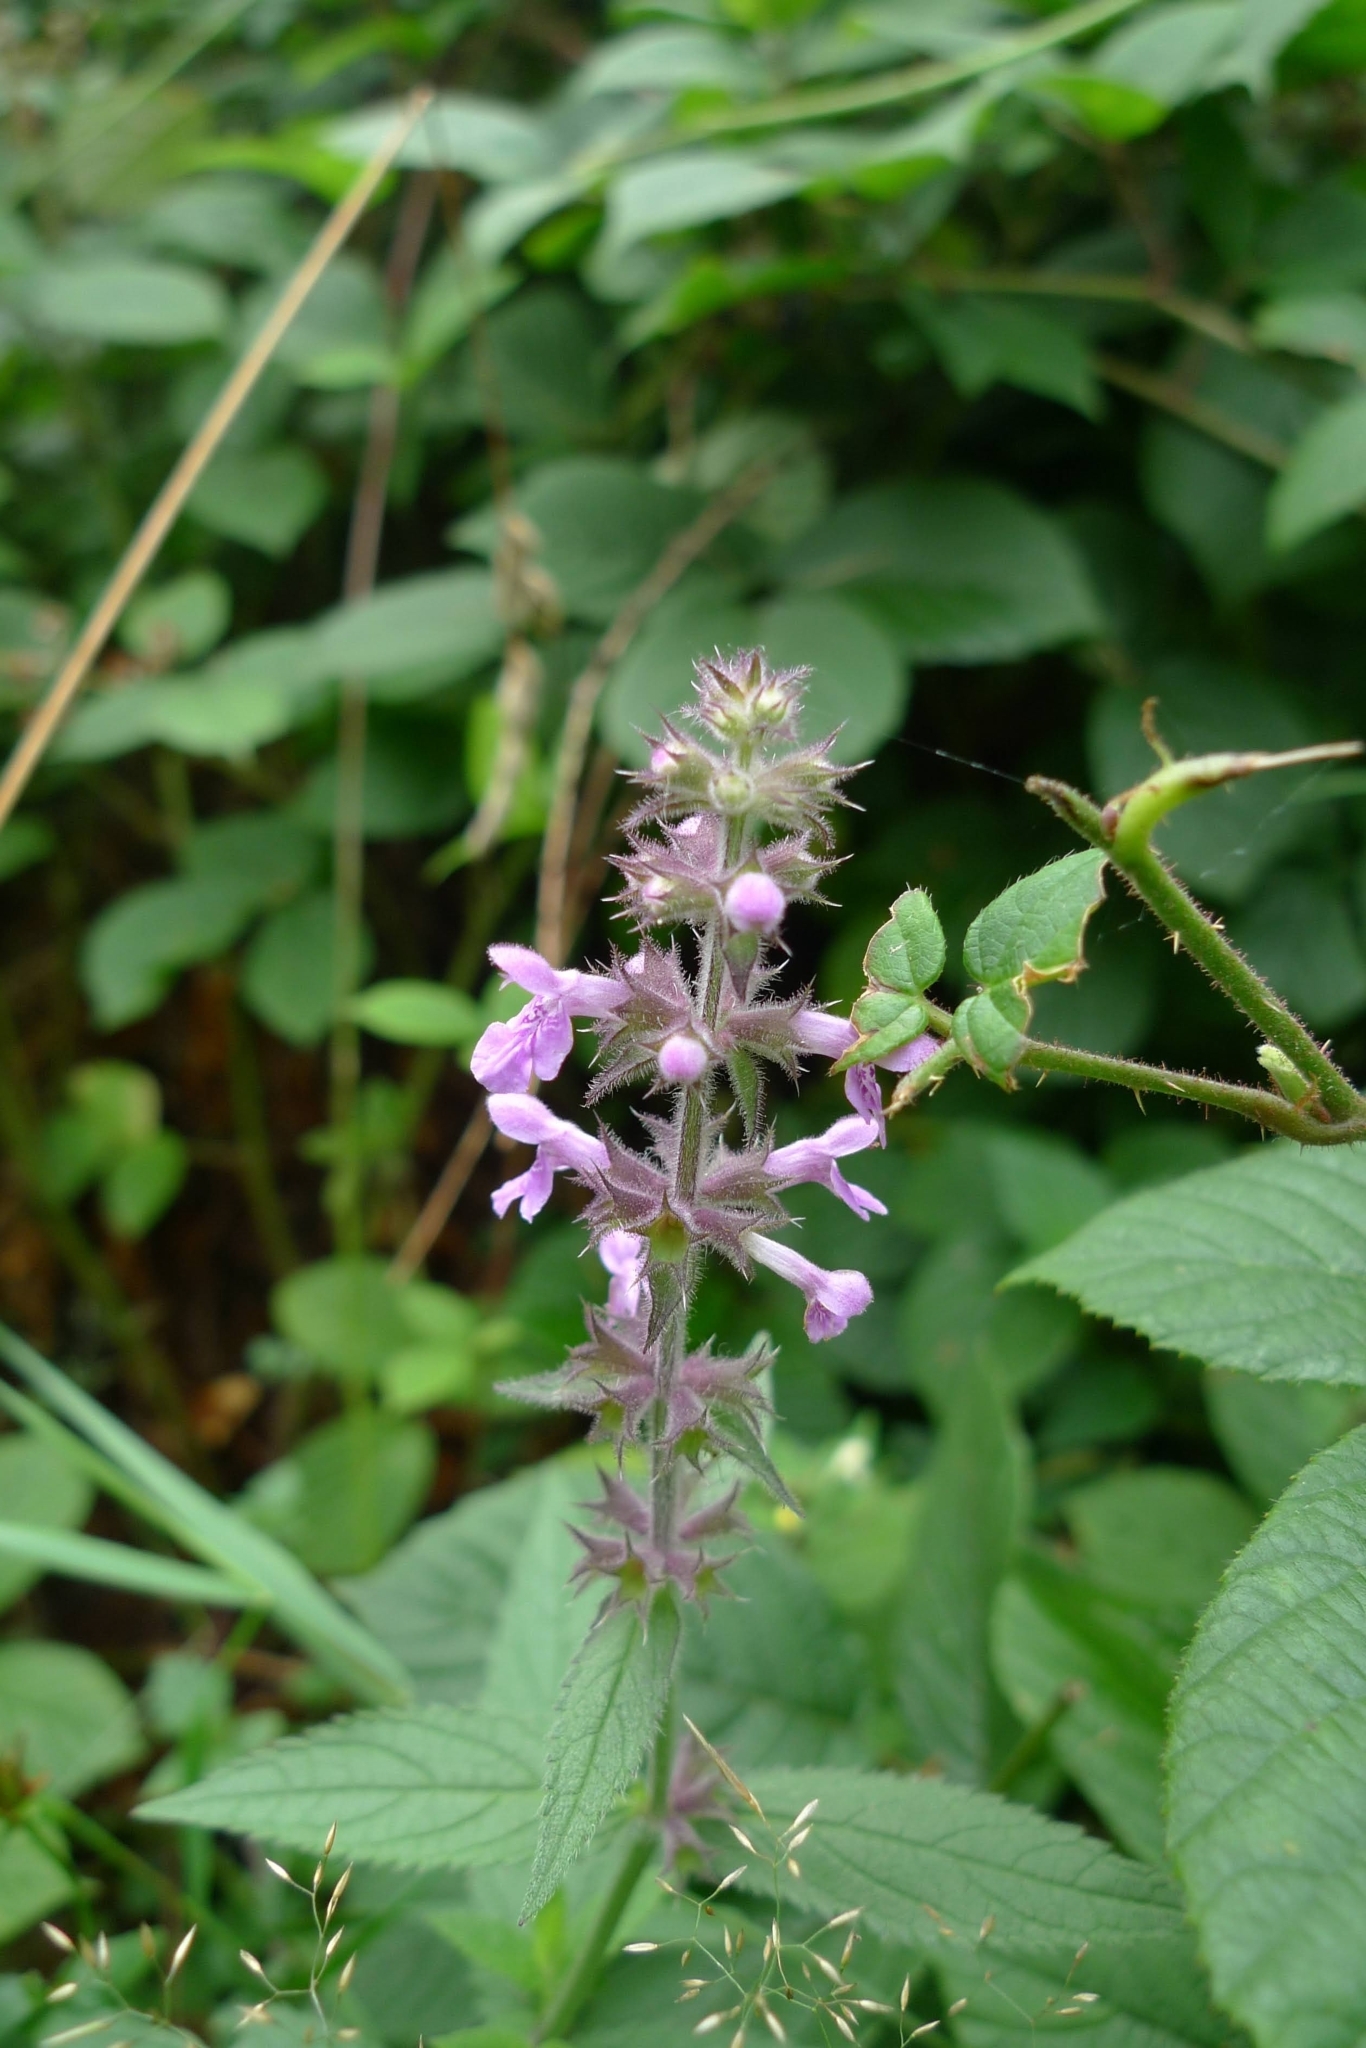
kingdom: Plantae
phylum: Tracheophyta
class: Magnoliopsida
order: Lamiales
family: Lamiaceae
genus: Stachys
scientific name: Stachys palustris
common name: Marsh woundwort
